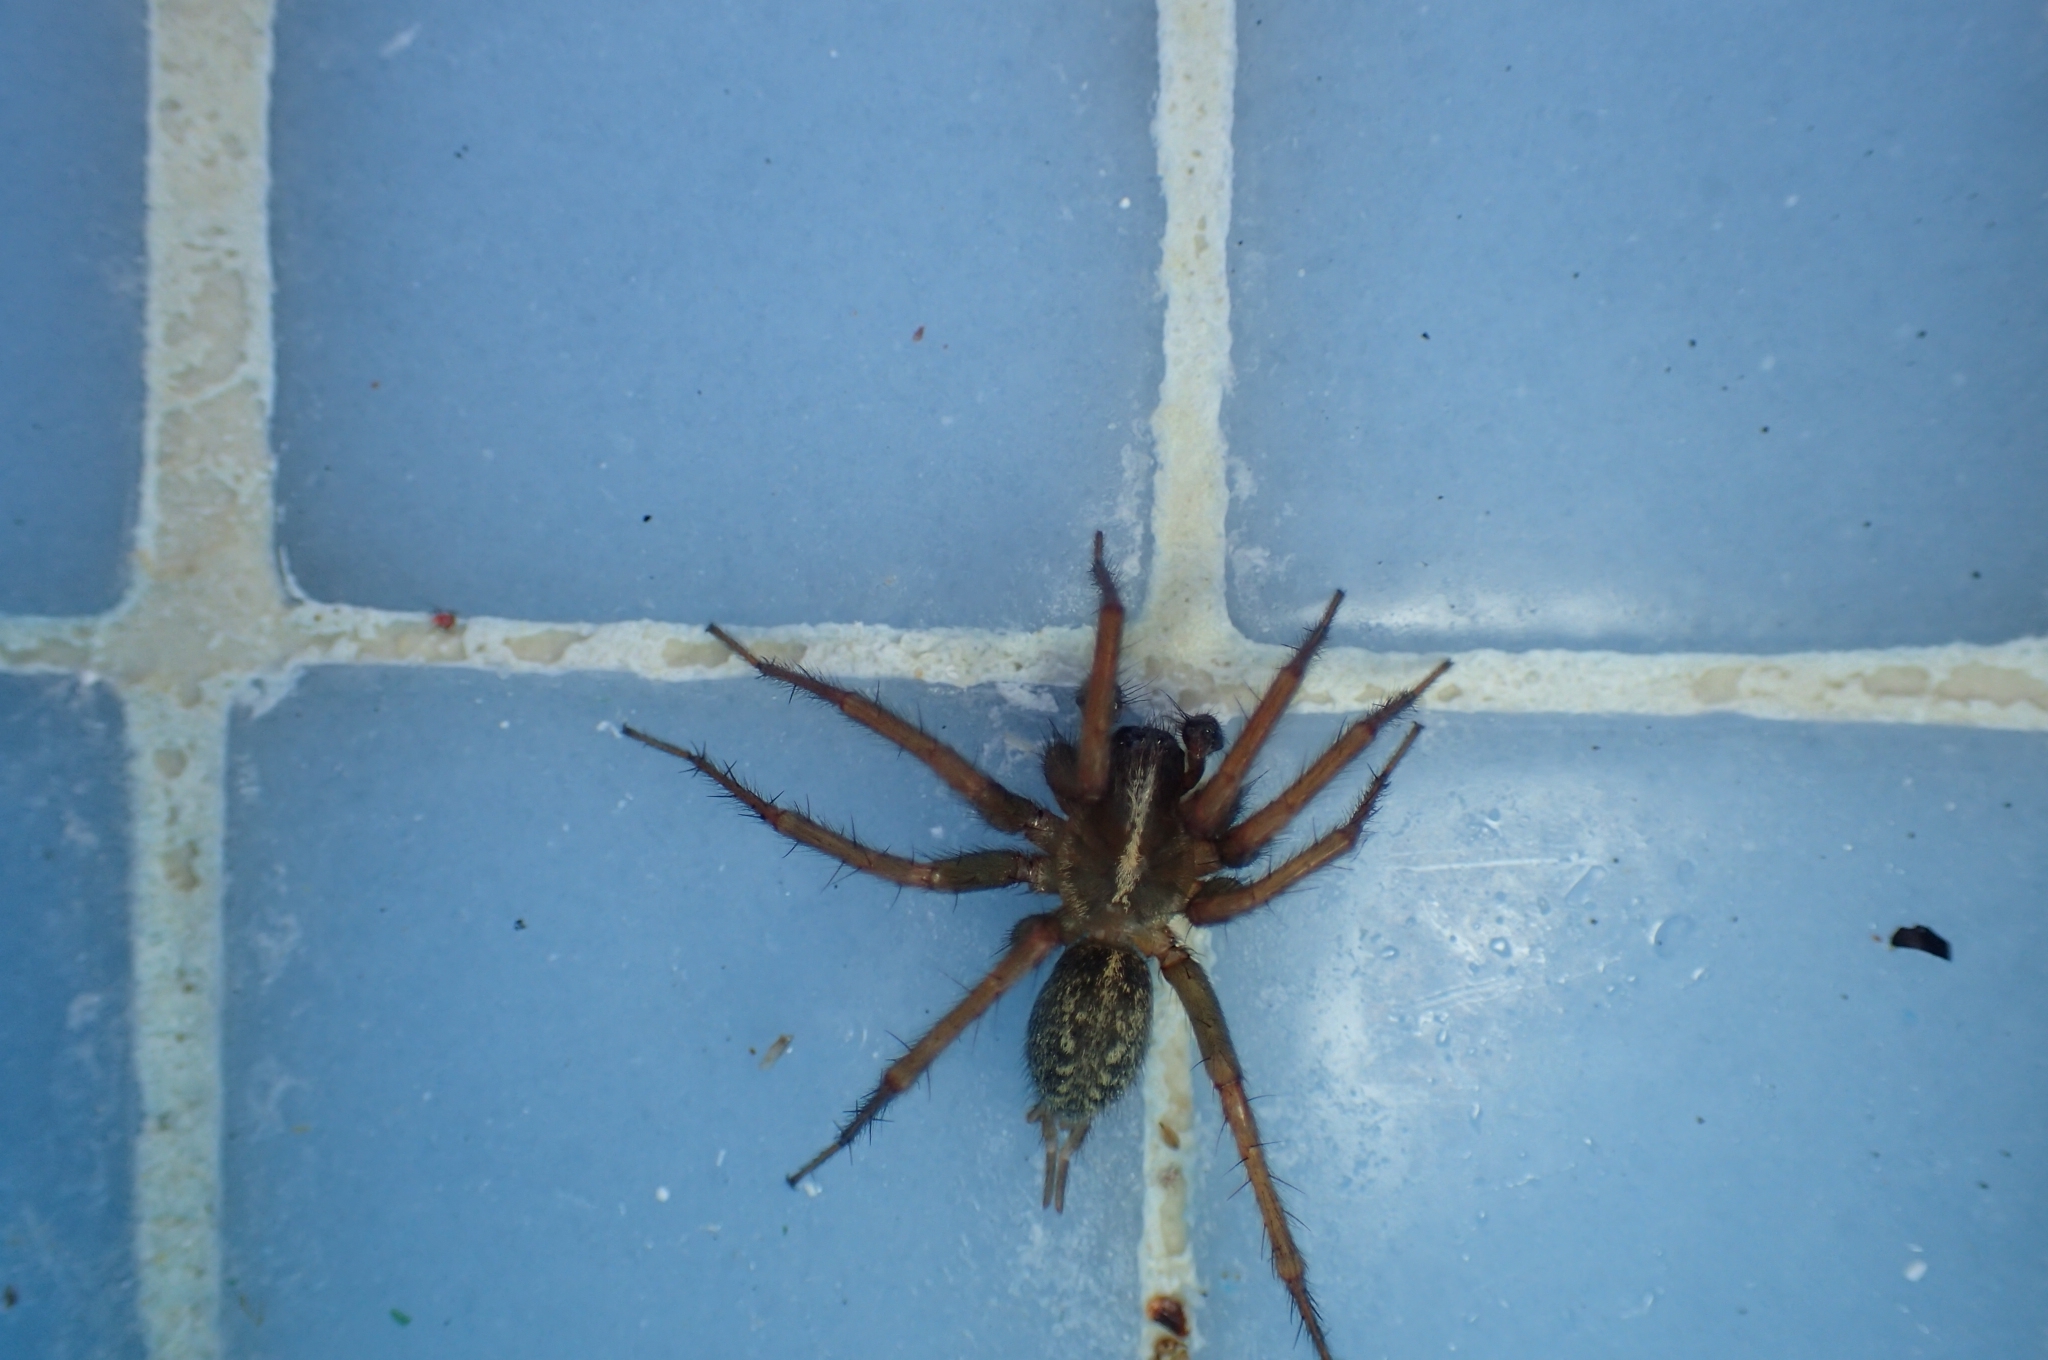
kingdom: Animalia
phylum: Arthropoda
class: Arachnida
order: Araneae
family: Agelenidae
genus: Lycosoides
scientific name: Lycosoides coarctata
